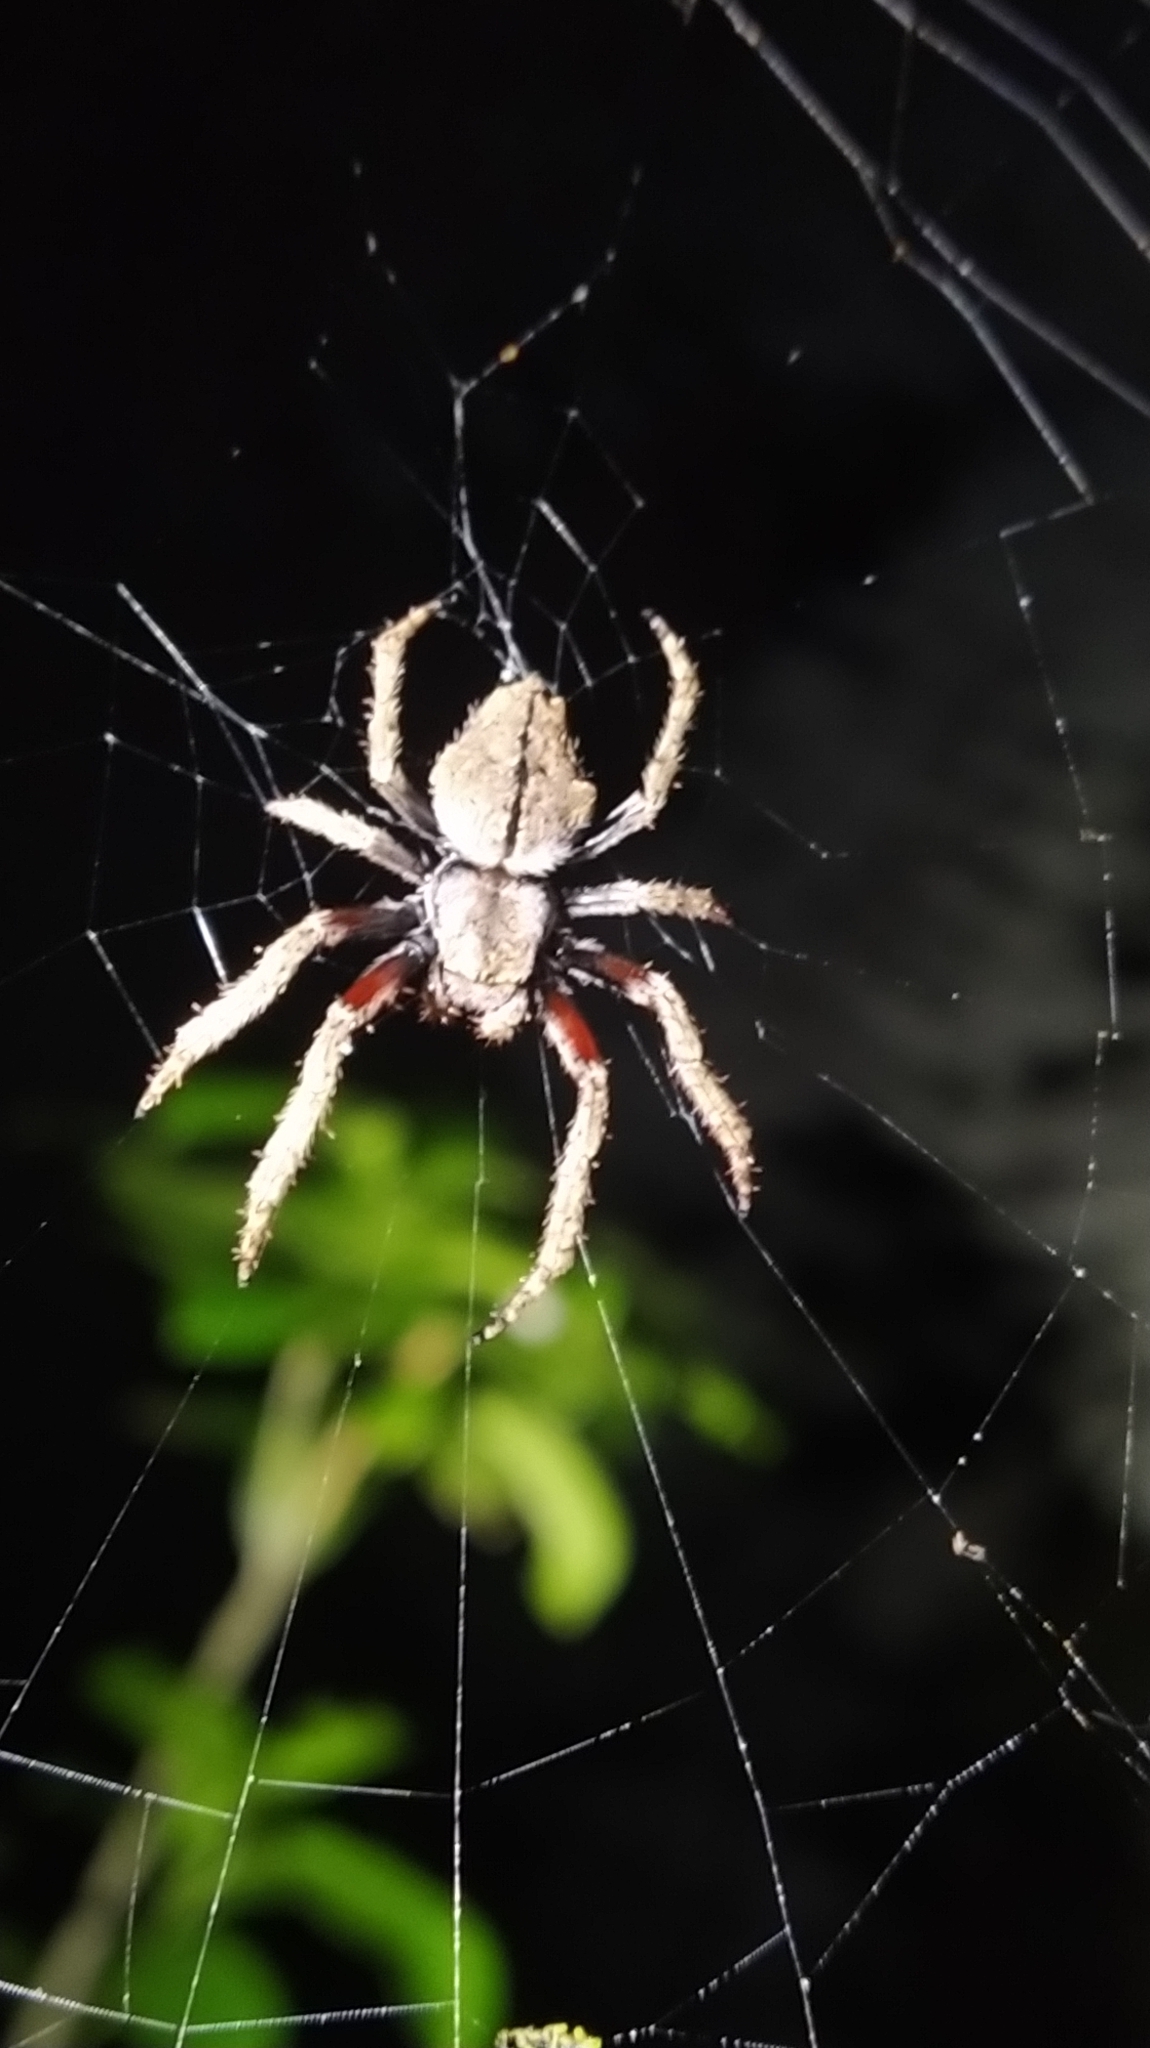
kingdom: Animalia
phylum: Arthropoda
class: Arachnida
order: Araneae
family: Araneidae
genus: Eriophora
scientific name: Eriophora pustulosa
